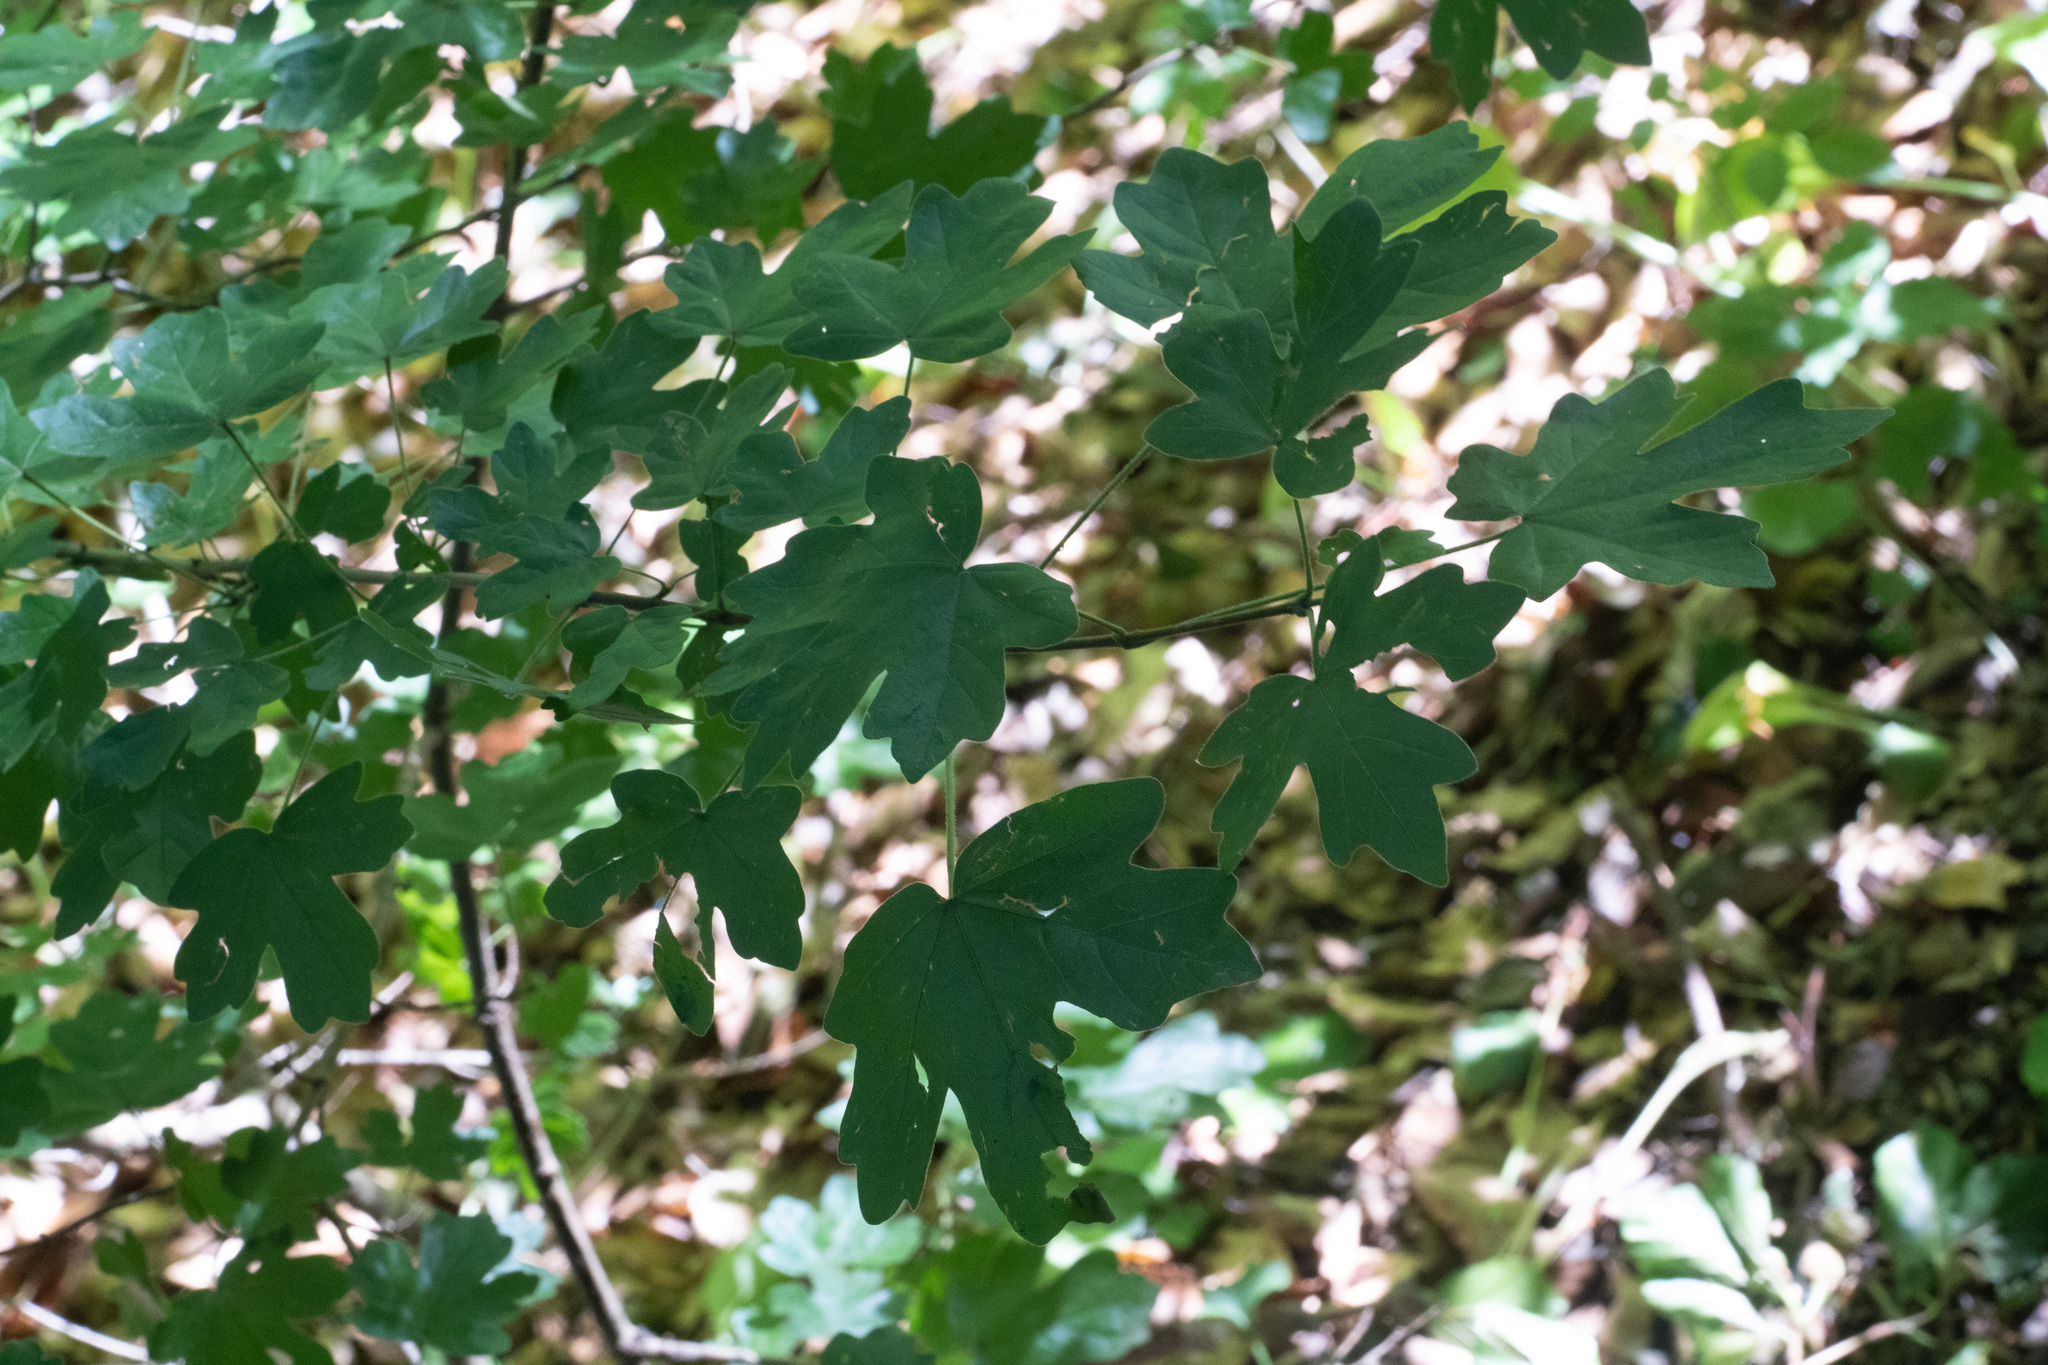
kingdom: Plantae
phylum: Tracheophyta
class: Magnoliopsida
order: Sapindales
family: Sapindaceae
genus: Acer
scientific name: Acer campestre
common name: Field maple
